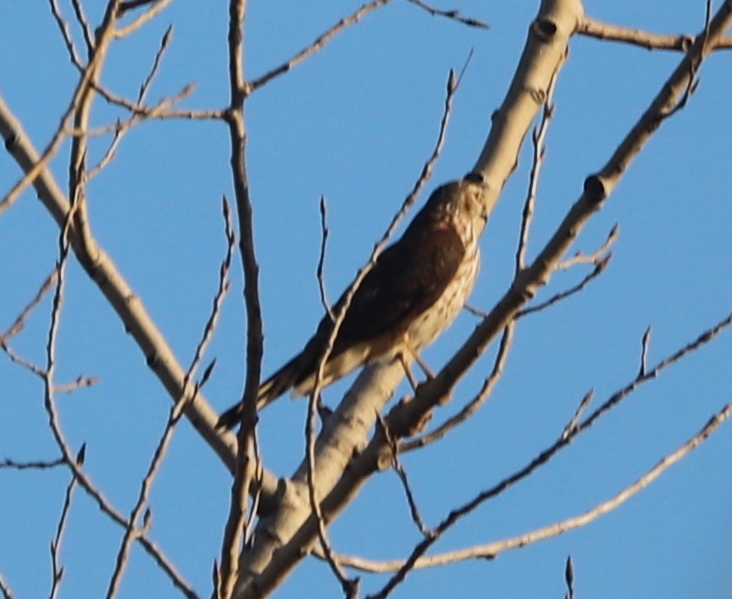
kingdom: Animalia
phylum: Chordata
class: Aves
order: Falconiformes
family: Falconidae
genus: Falco
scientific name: Falco columbarius
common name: Merlin
